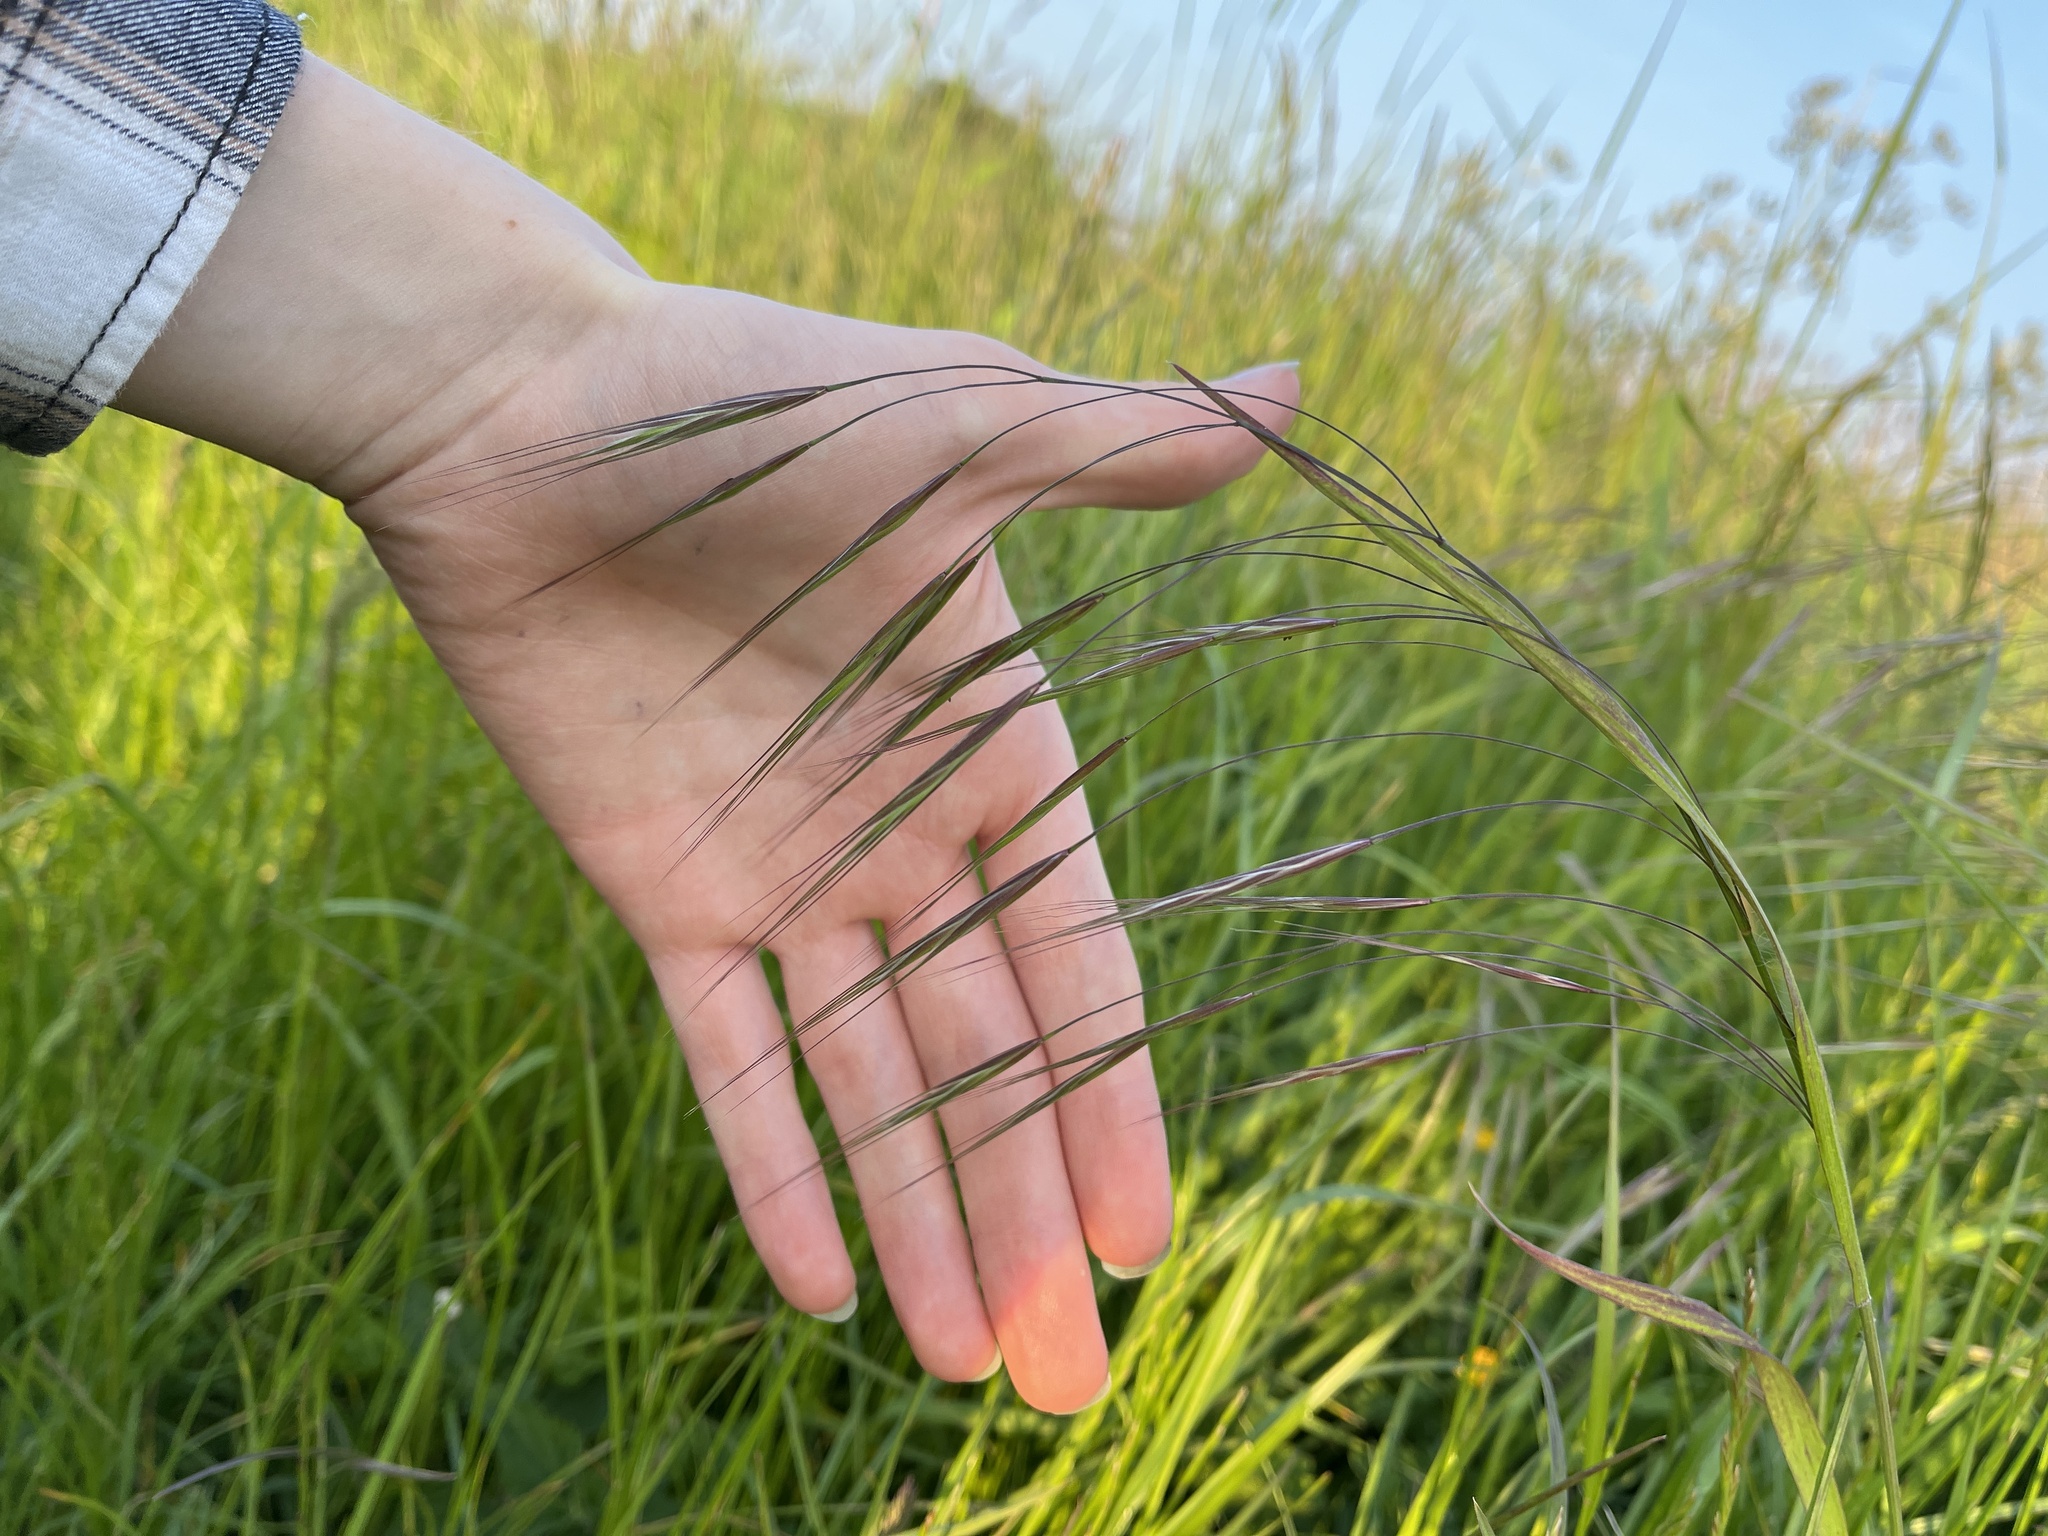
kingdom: Plantae
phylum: Tracheophyta
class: Liliopsida
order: Poales
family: Poaceae
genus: Bromus
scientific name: Bromus sterilis
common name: Poverty brome
